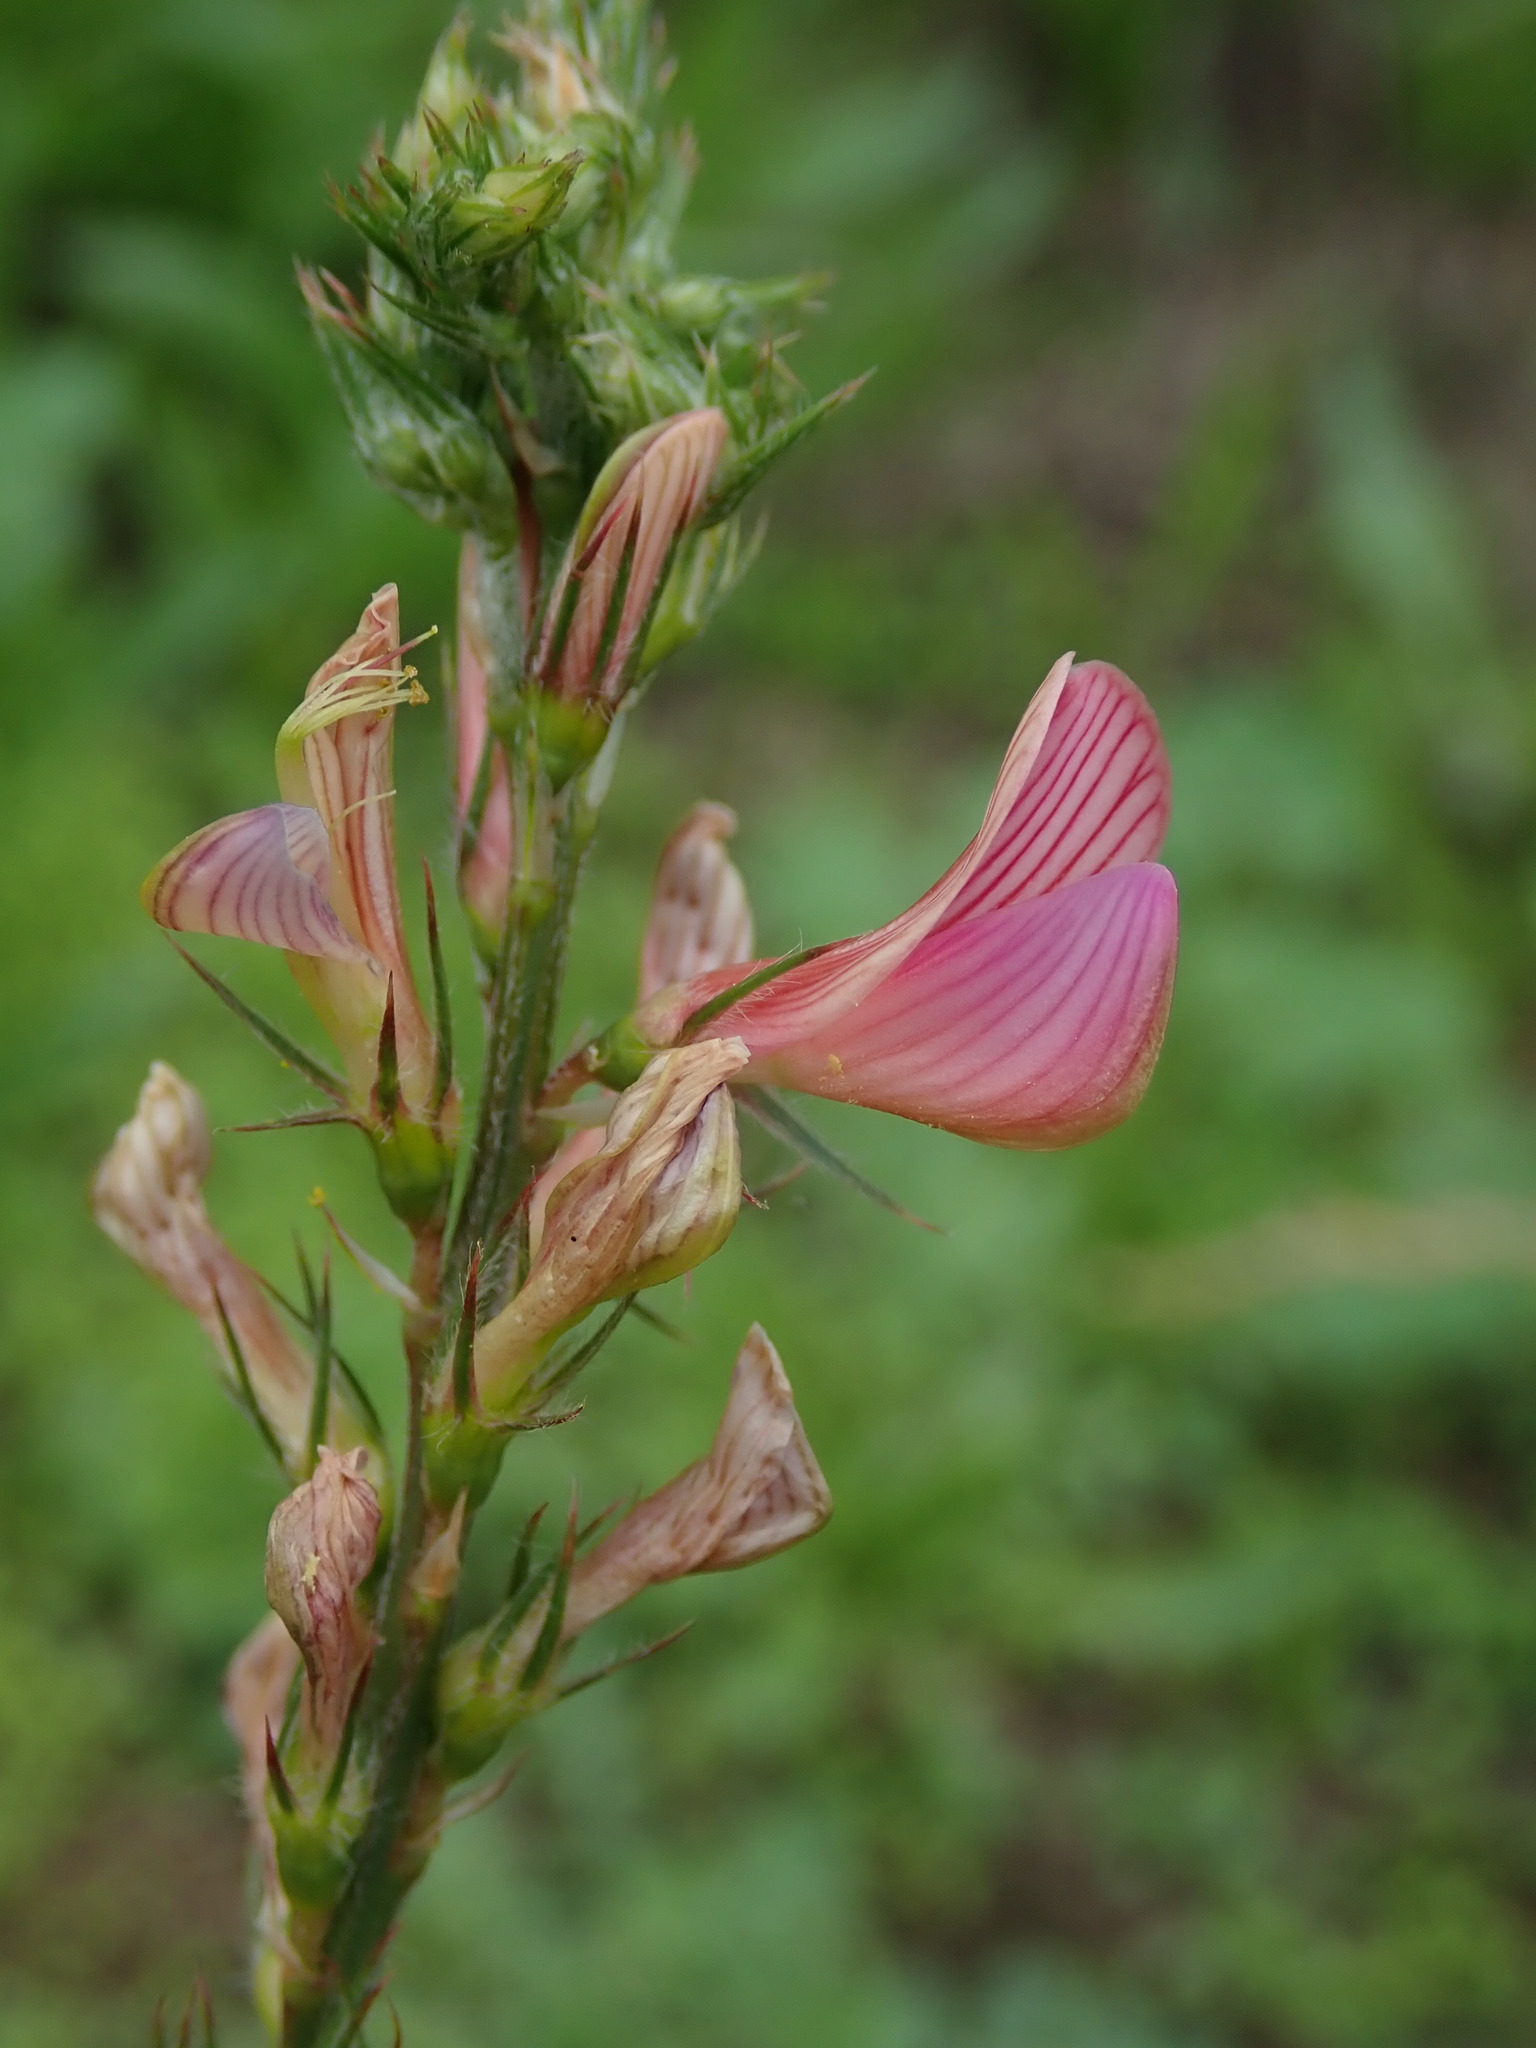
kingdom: Plantae
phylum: Tracheophyta
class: Magnoliopsida
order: Fabales
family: Fabaceae
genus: Onobrychis
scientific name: Onobrychis viciifolia
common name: Sainfoin
